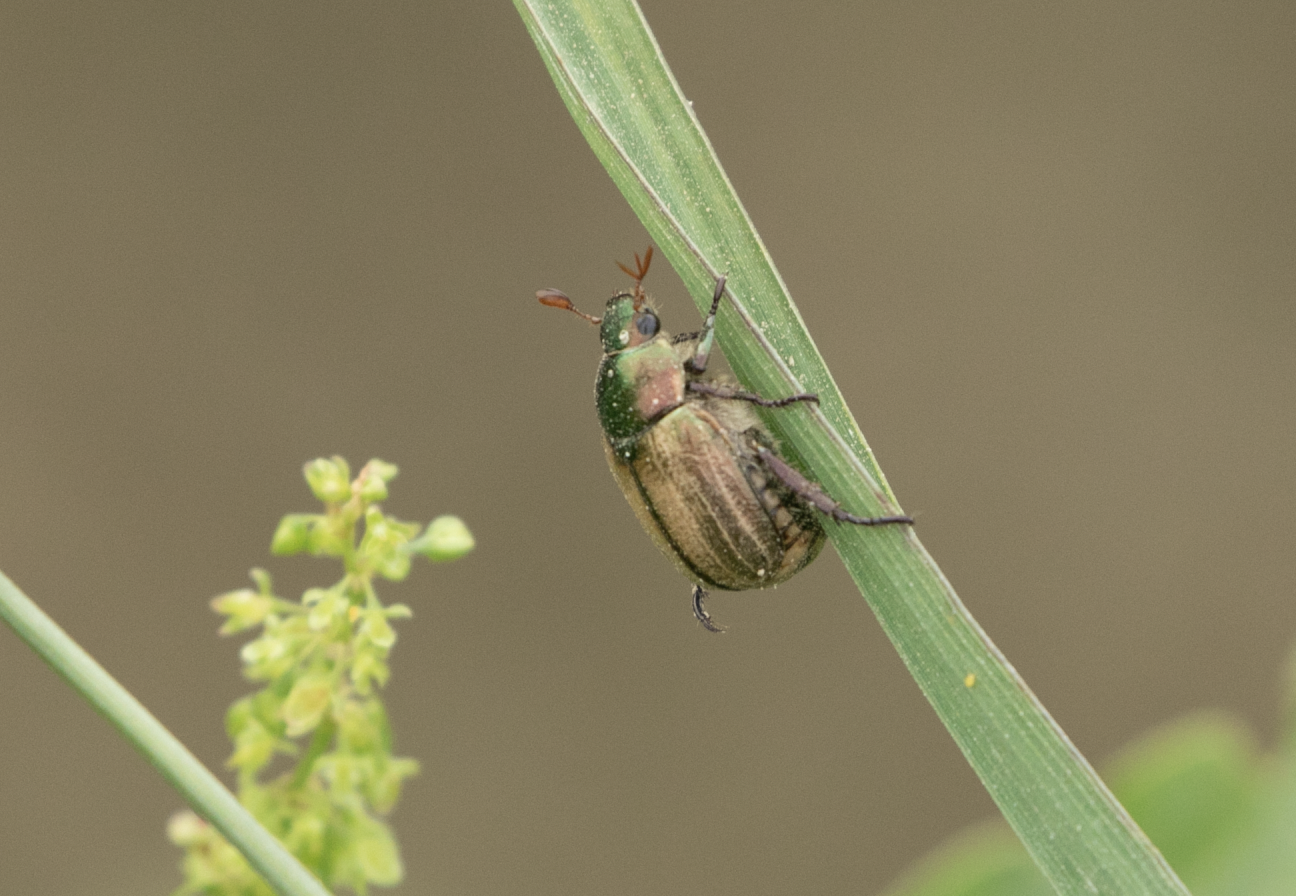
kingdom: Animalia
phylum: Arthropoda
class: Insecta
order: Coleoptera
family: Scarabaeidae
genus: Mimela
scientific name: Mimela junii
